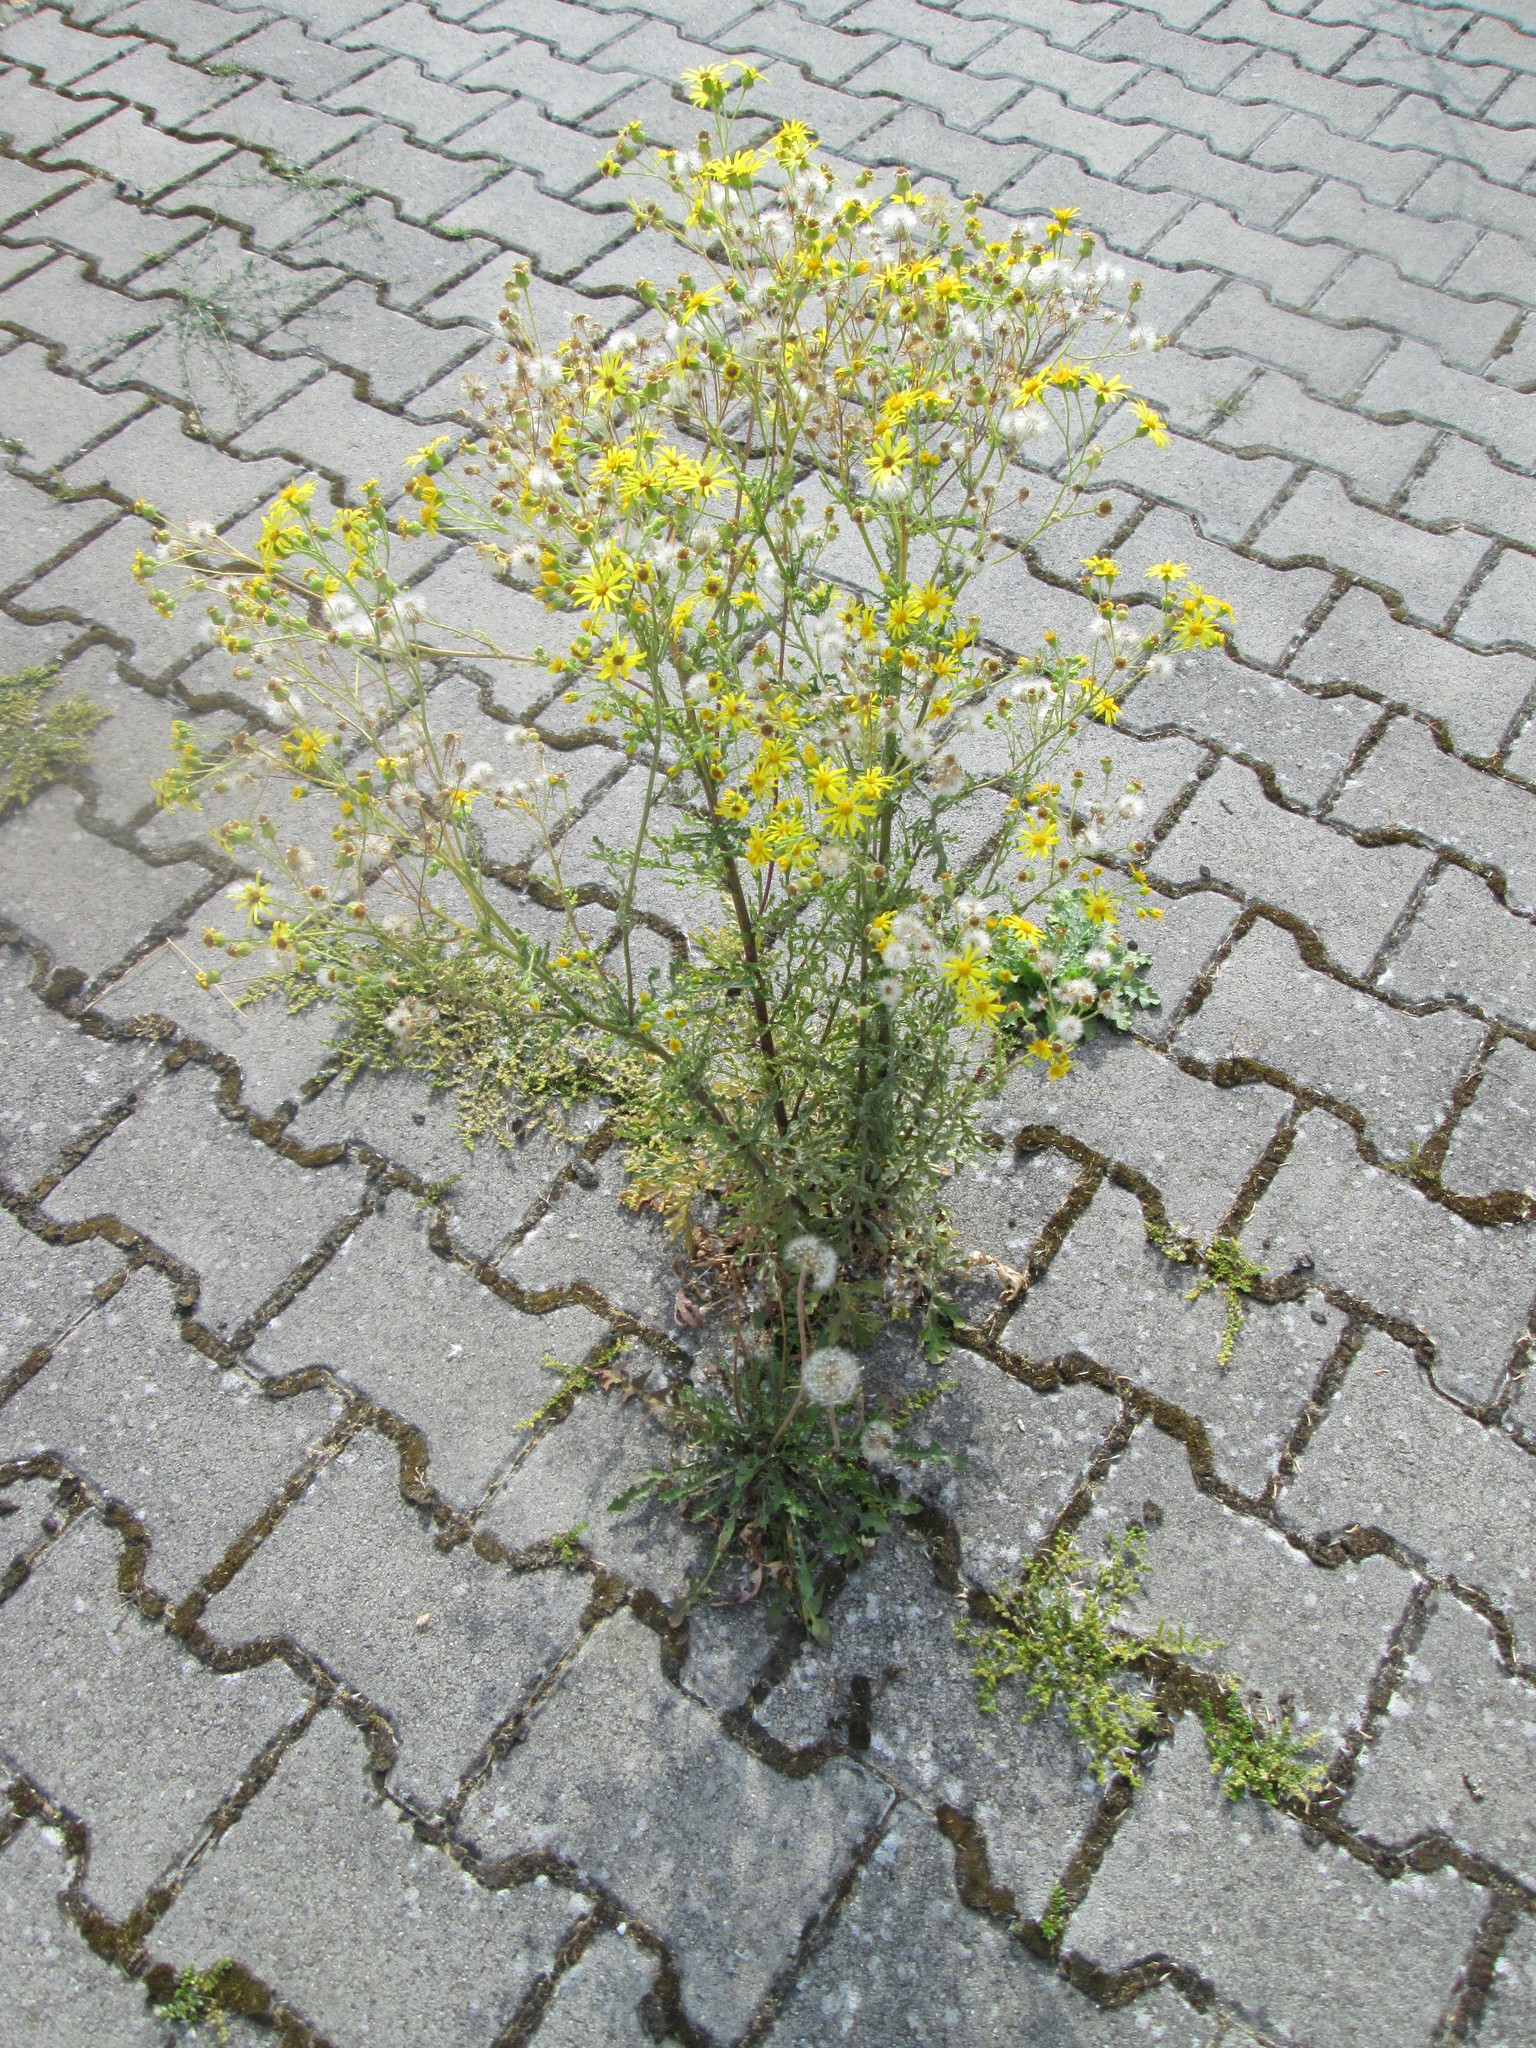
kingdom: Plantae
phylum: Tracheophyta
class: Magnoliopsida
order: Asterales
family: Asteraceae
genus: Jacobaea
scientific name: Jacobaea vulgaris
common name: Stinking willie
